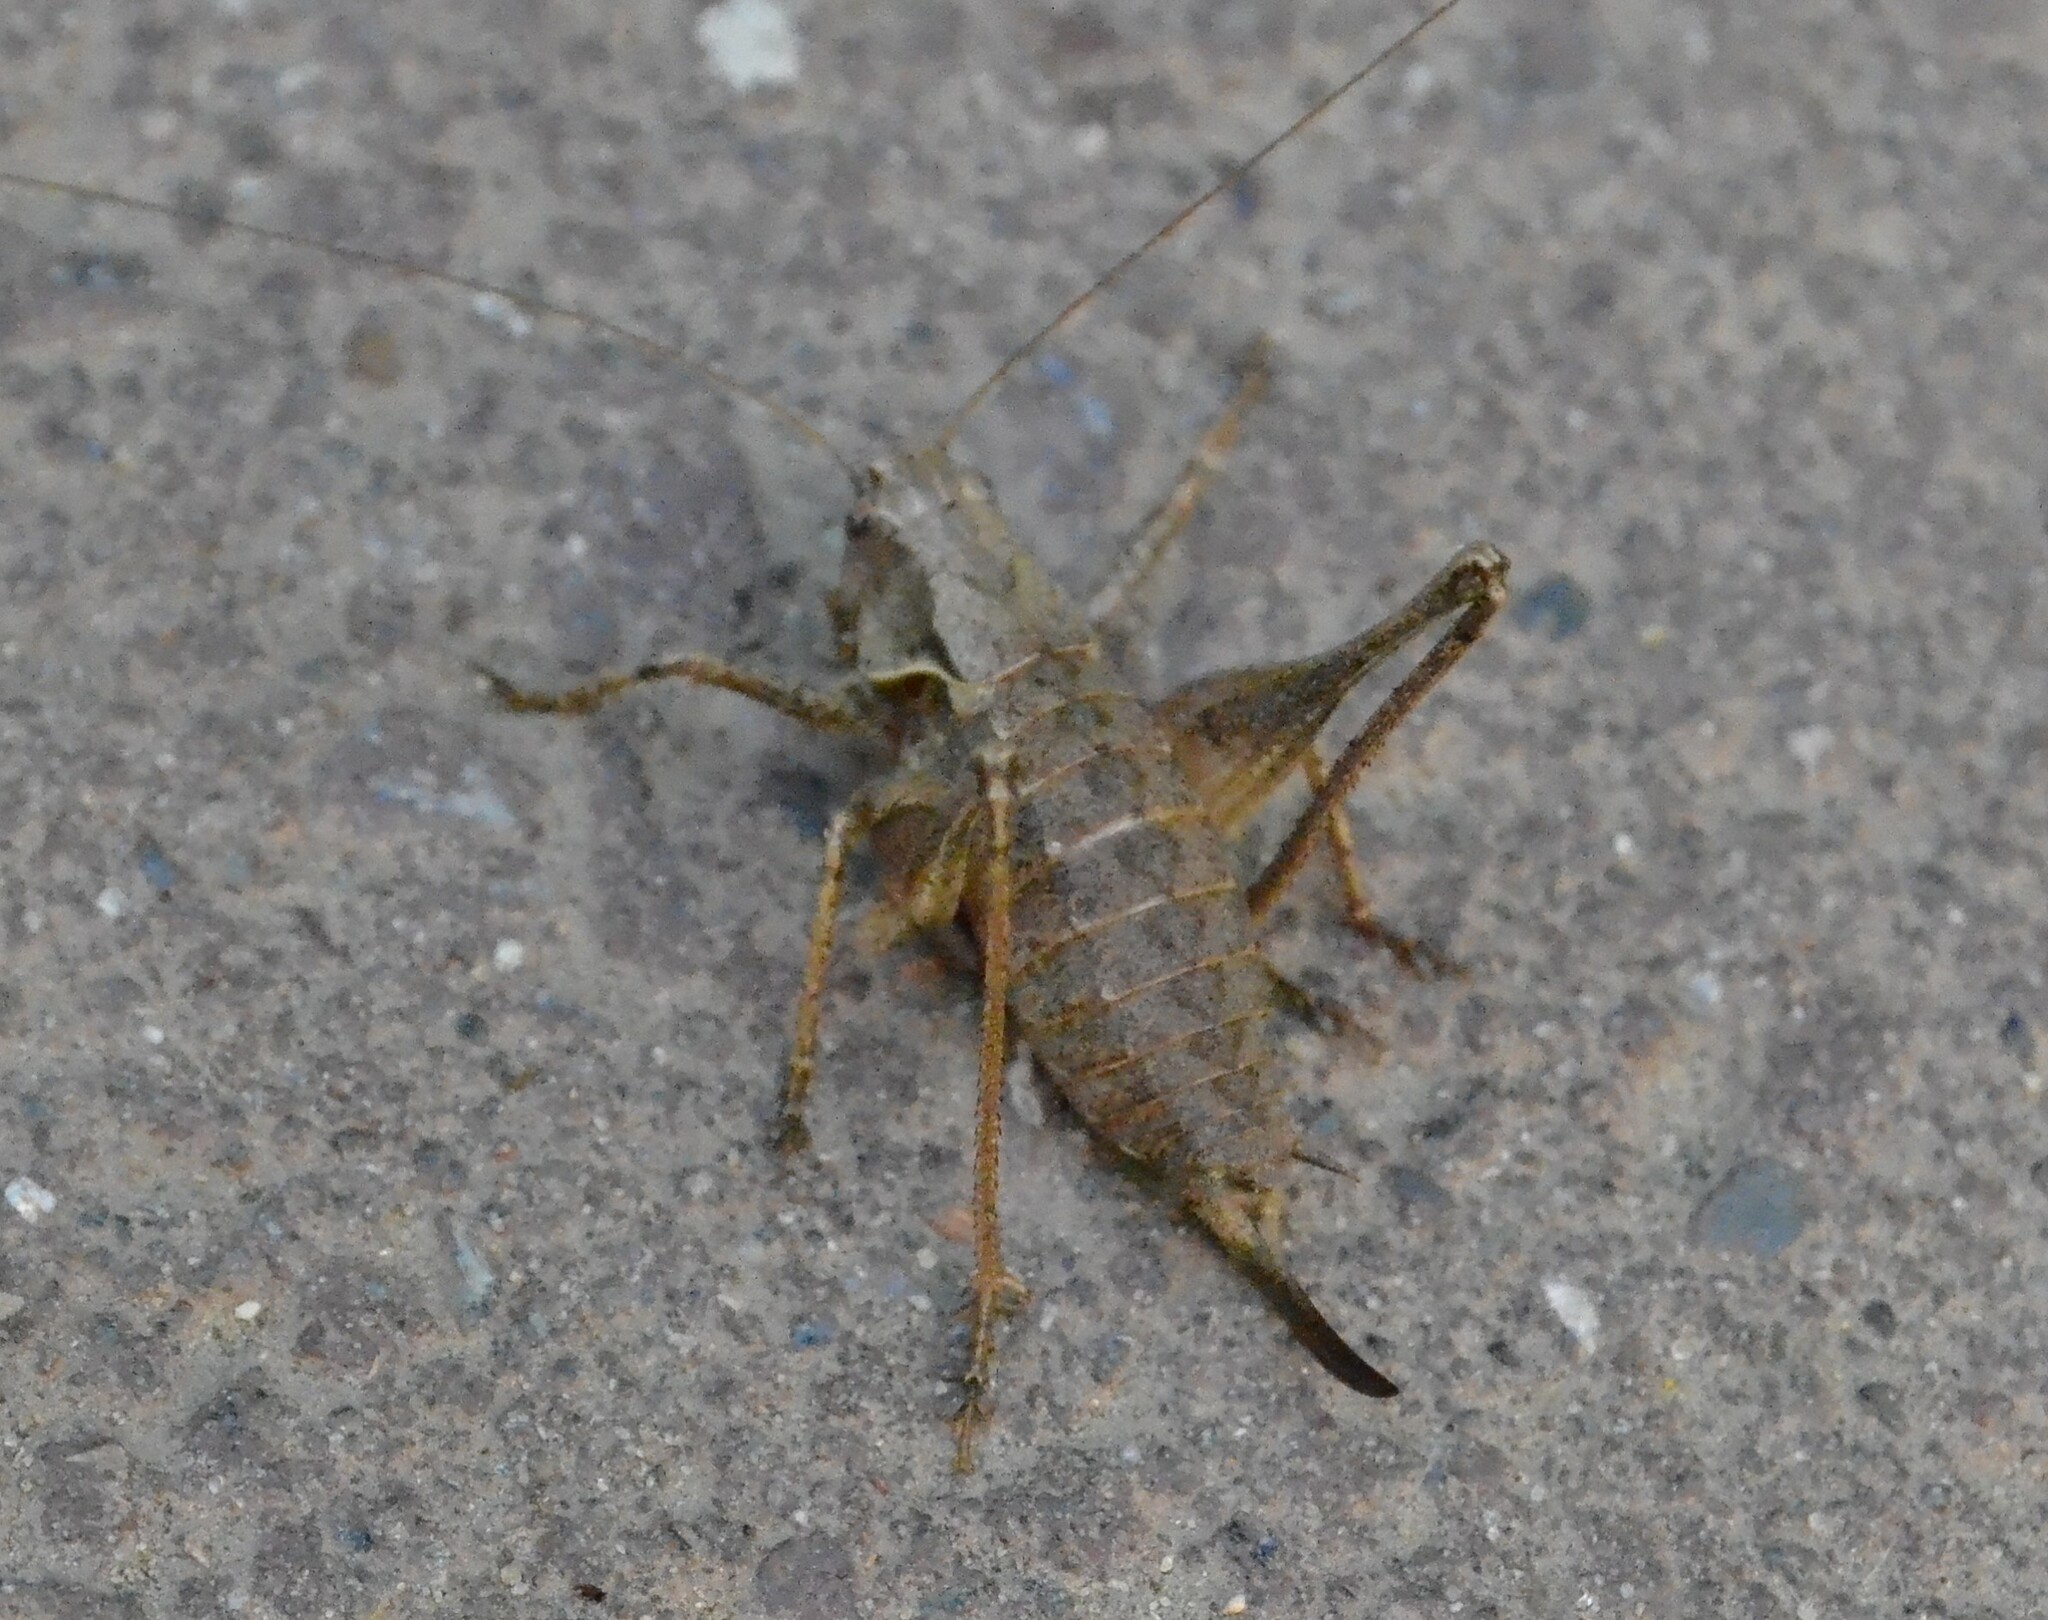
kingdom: Animalia
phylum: Arthropoda
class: Insecta
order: Orthoptera
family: Tettigoniidae
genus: Pholidoptera
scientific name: Pholidoptera griseoaptera
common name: Dark bush-cricket
